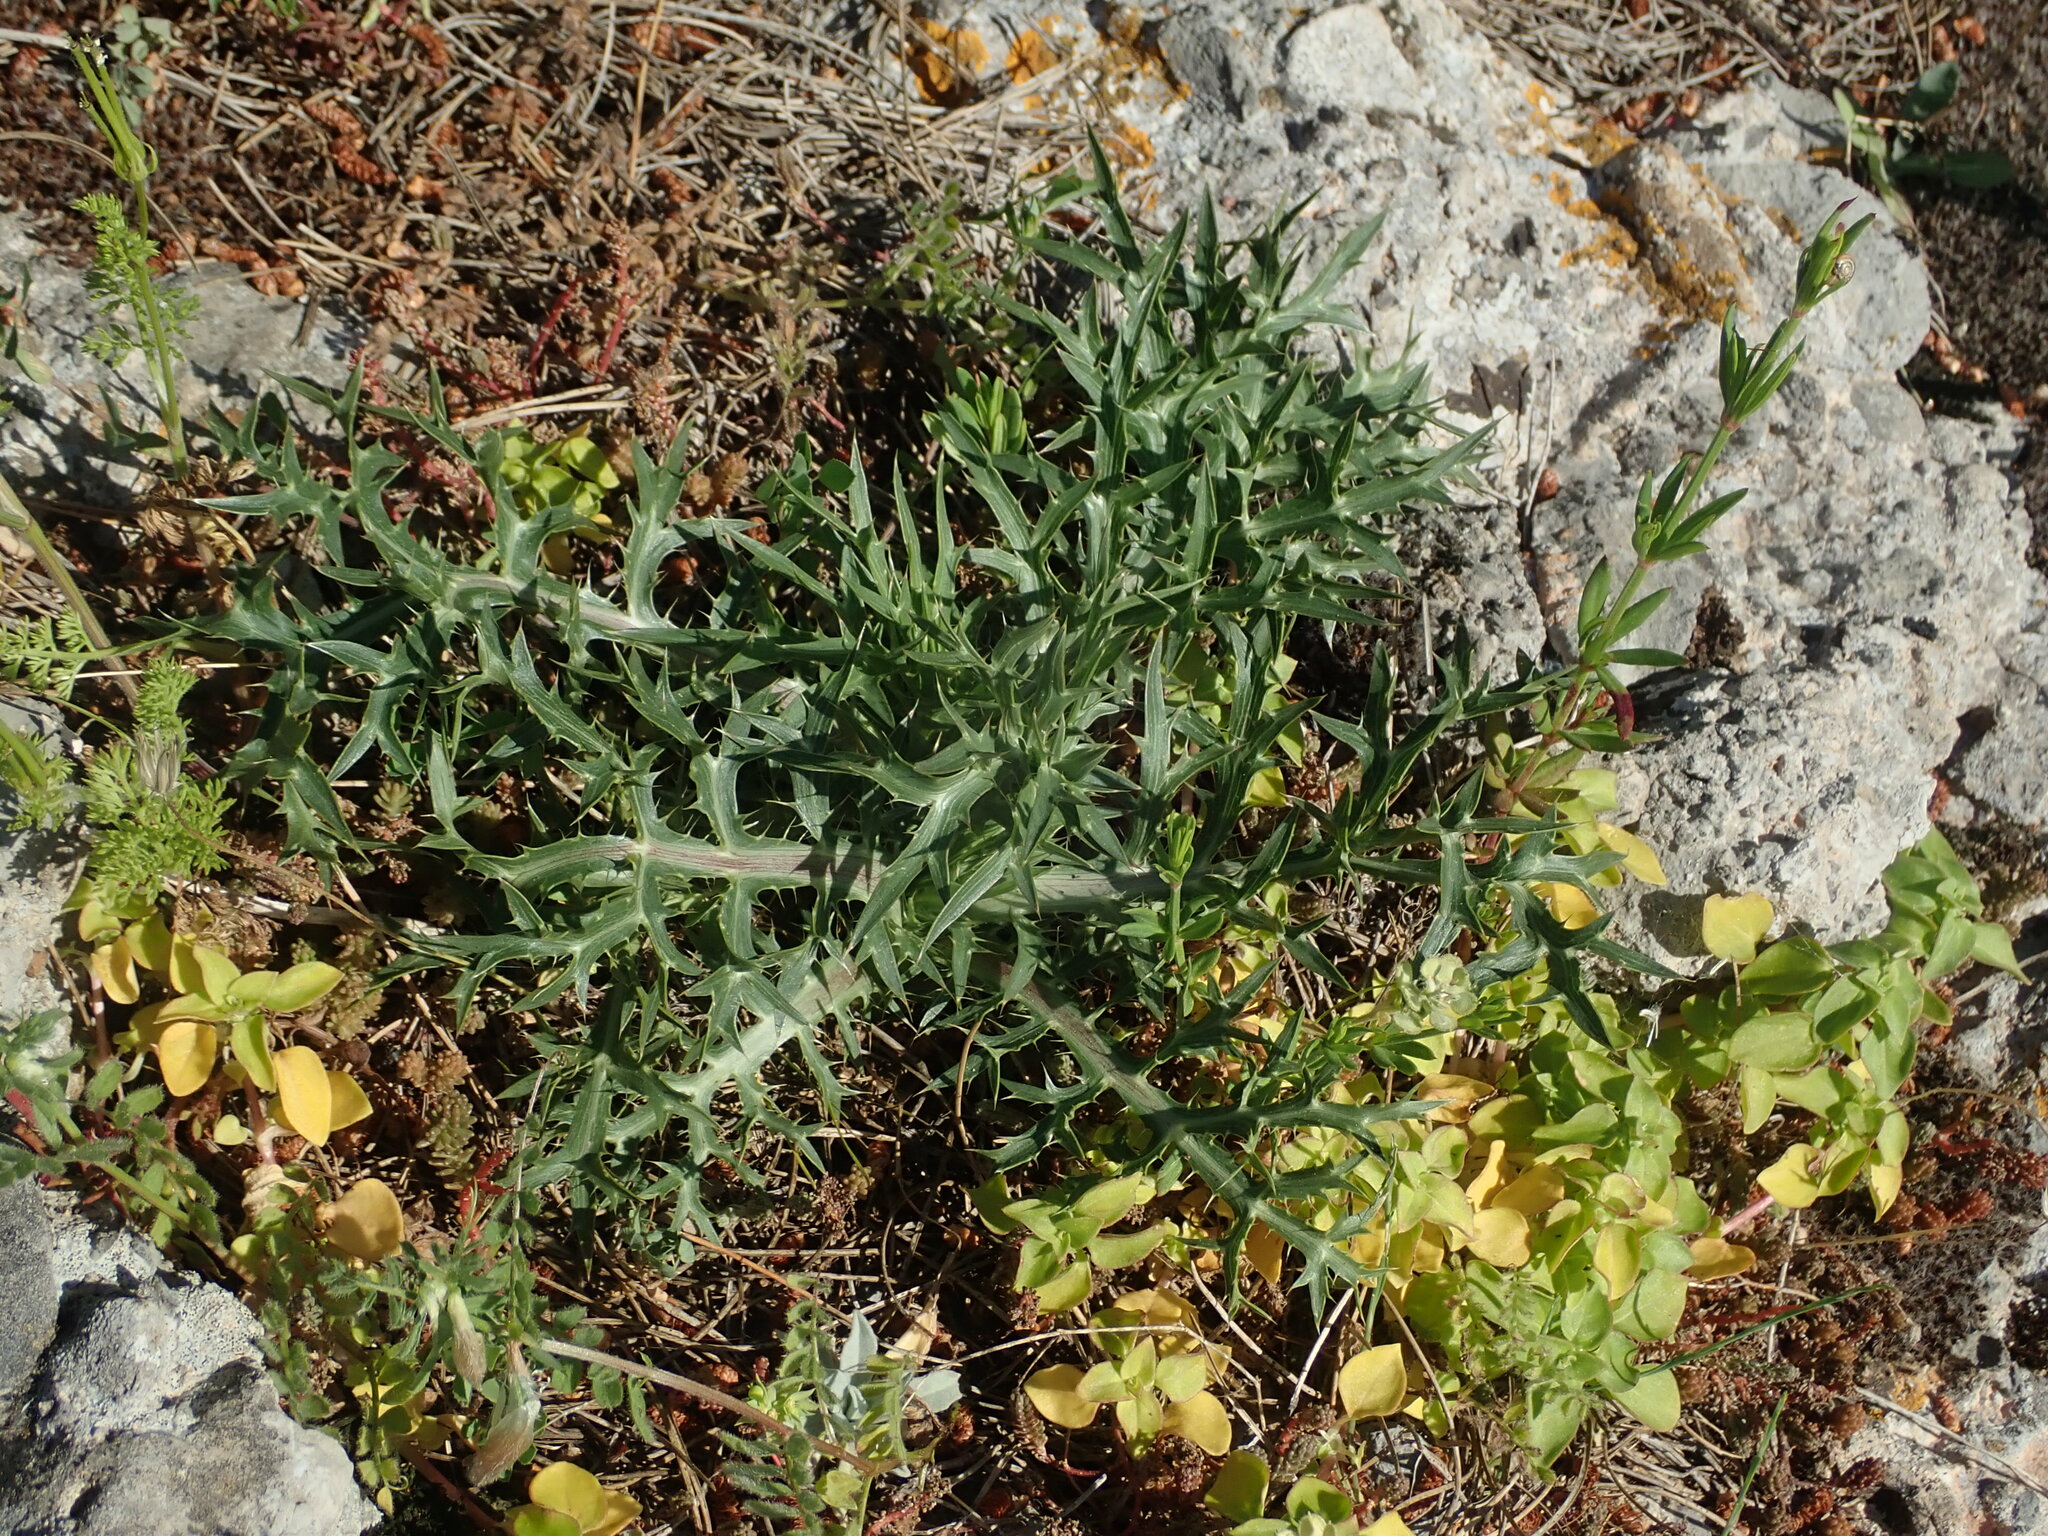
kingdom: Plantae
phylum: Tracheophyta
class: Magnoliopsida
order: Apiales
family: Apiaceae
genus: Eryngium
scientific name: Eryngium campestre
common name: Field eryngo
